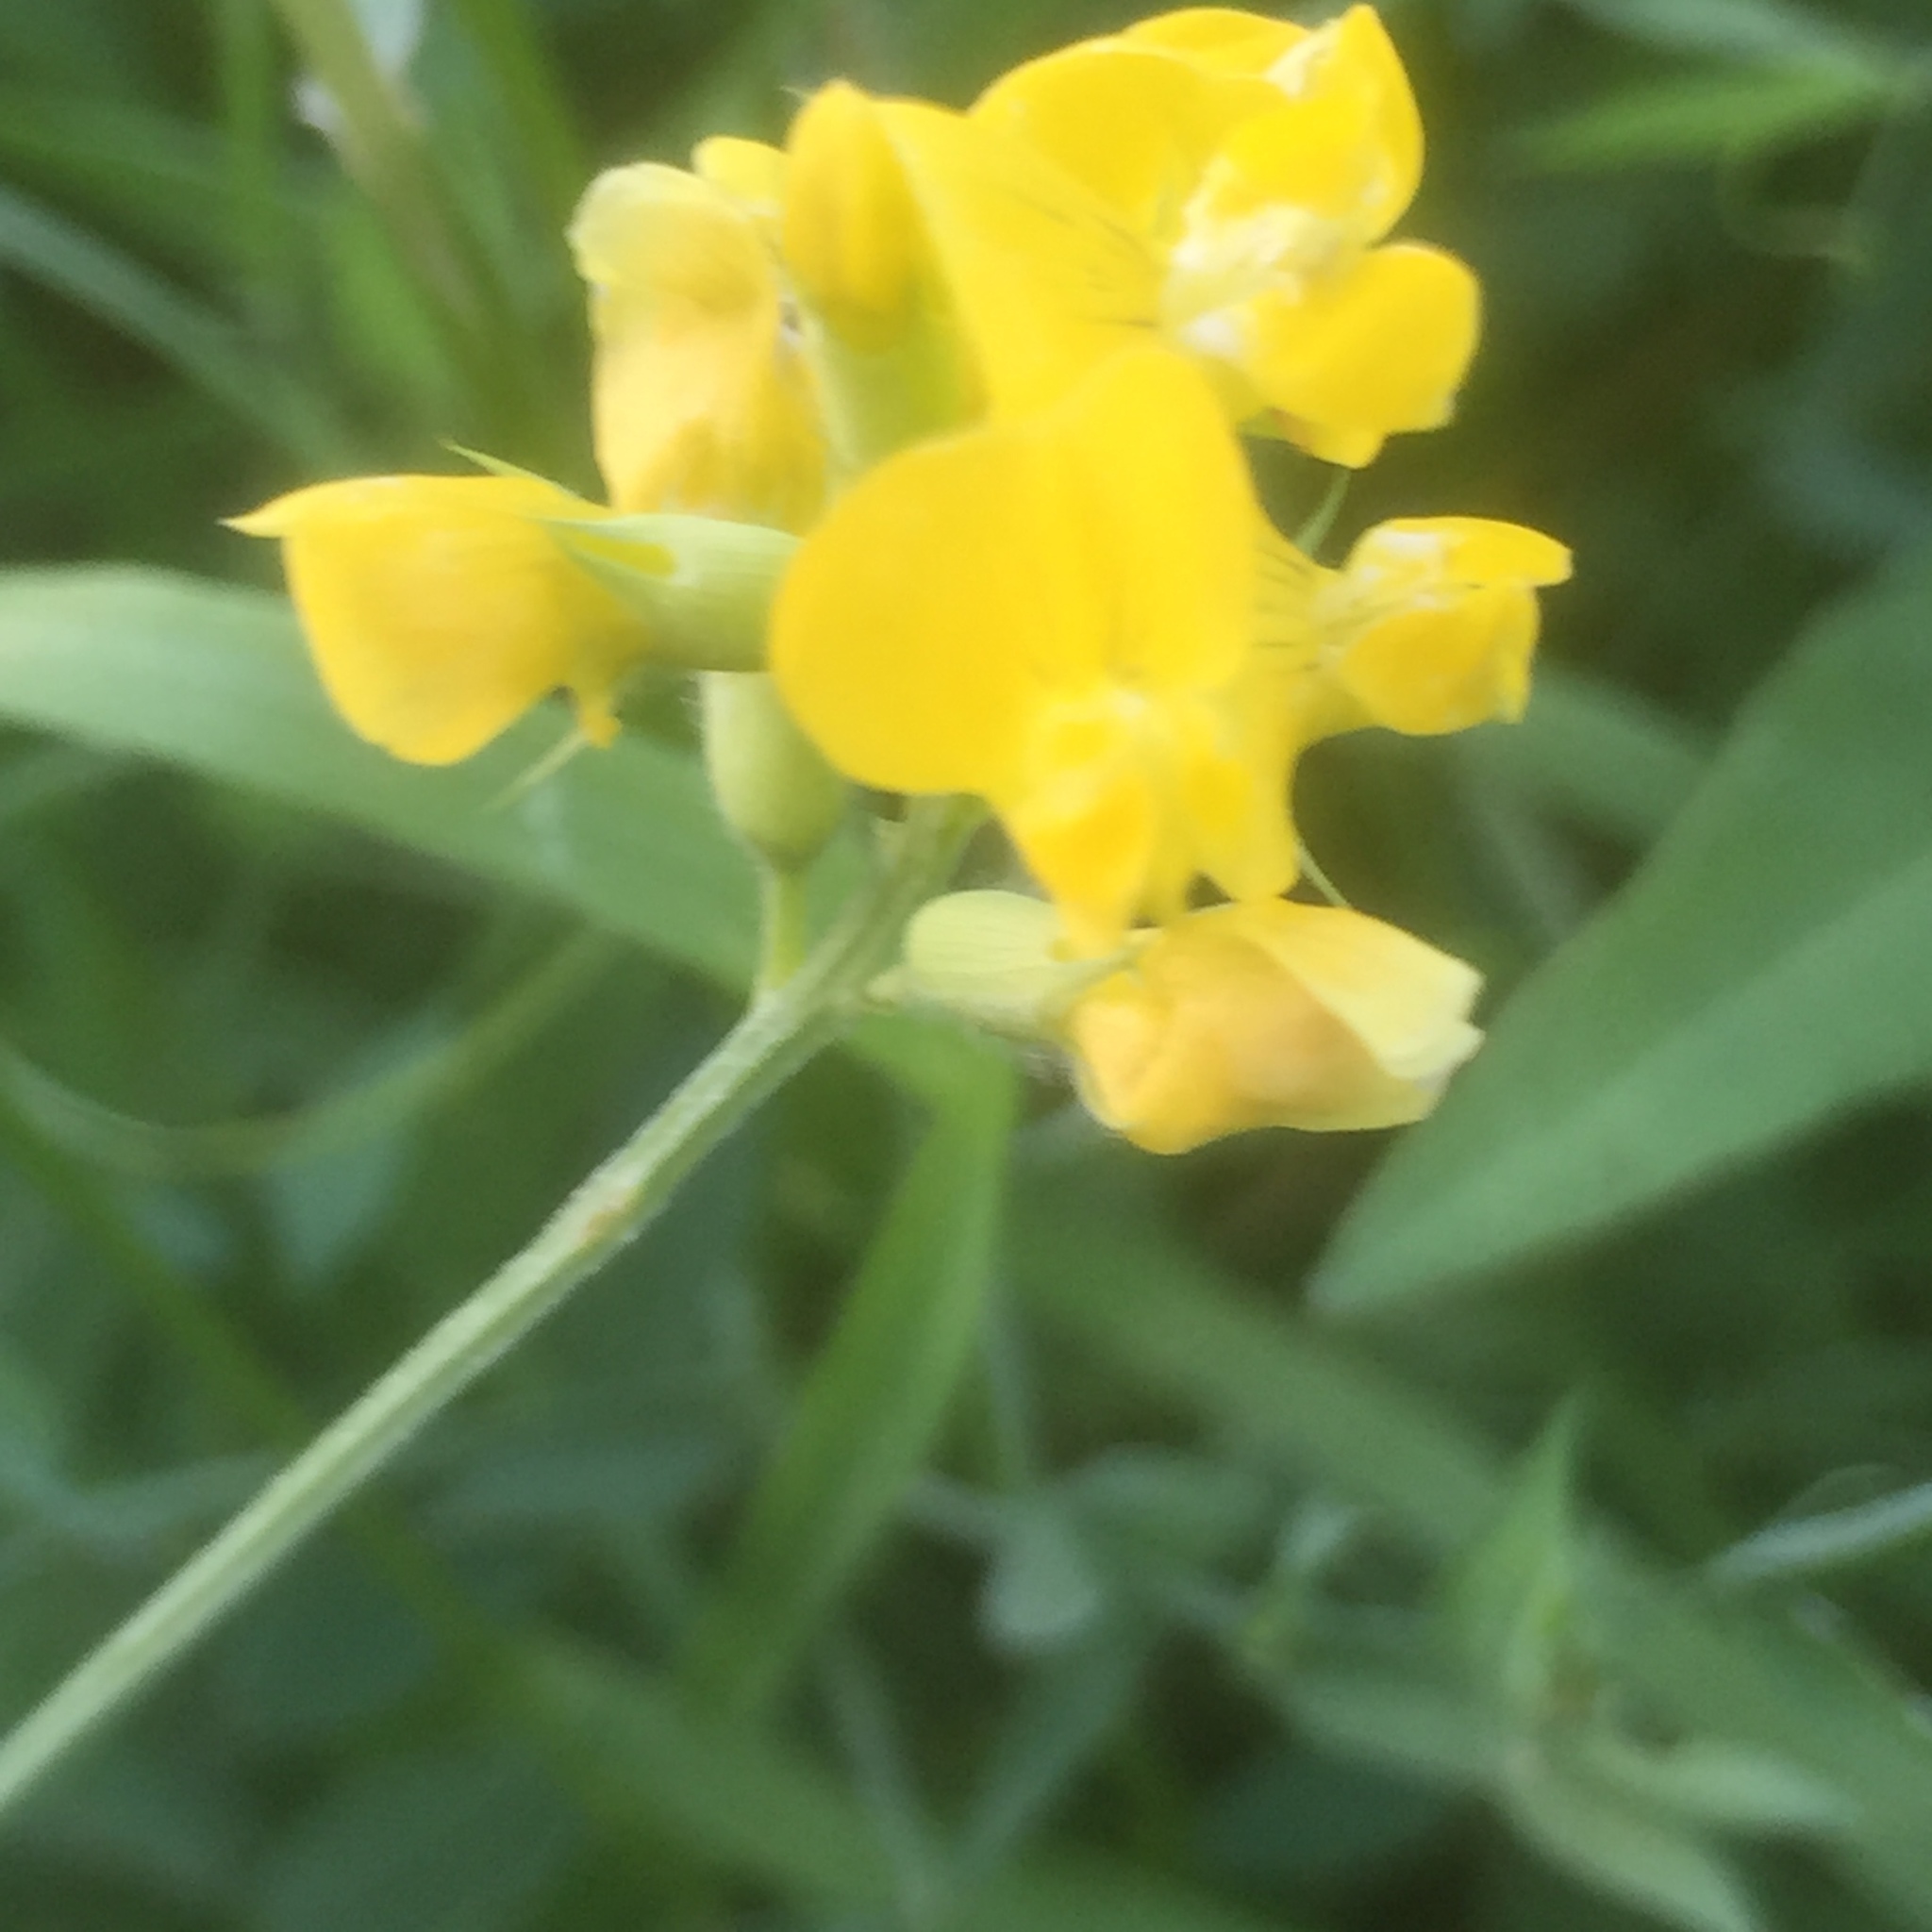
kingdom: Plantae
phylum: Tracheophyta
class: Magnoliopsida
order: Fabales
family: Fabaceae
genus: Lathyrus
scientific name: Lathyrus pratensis
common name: Meadow vetchling
